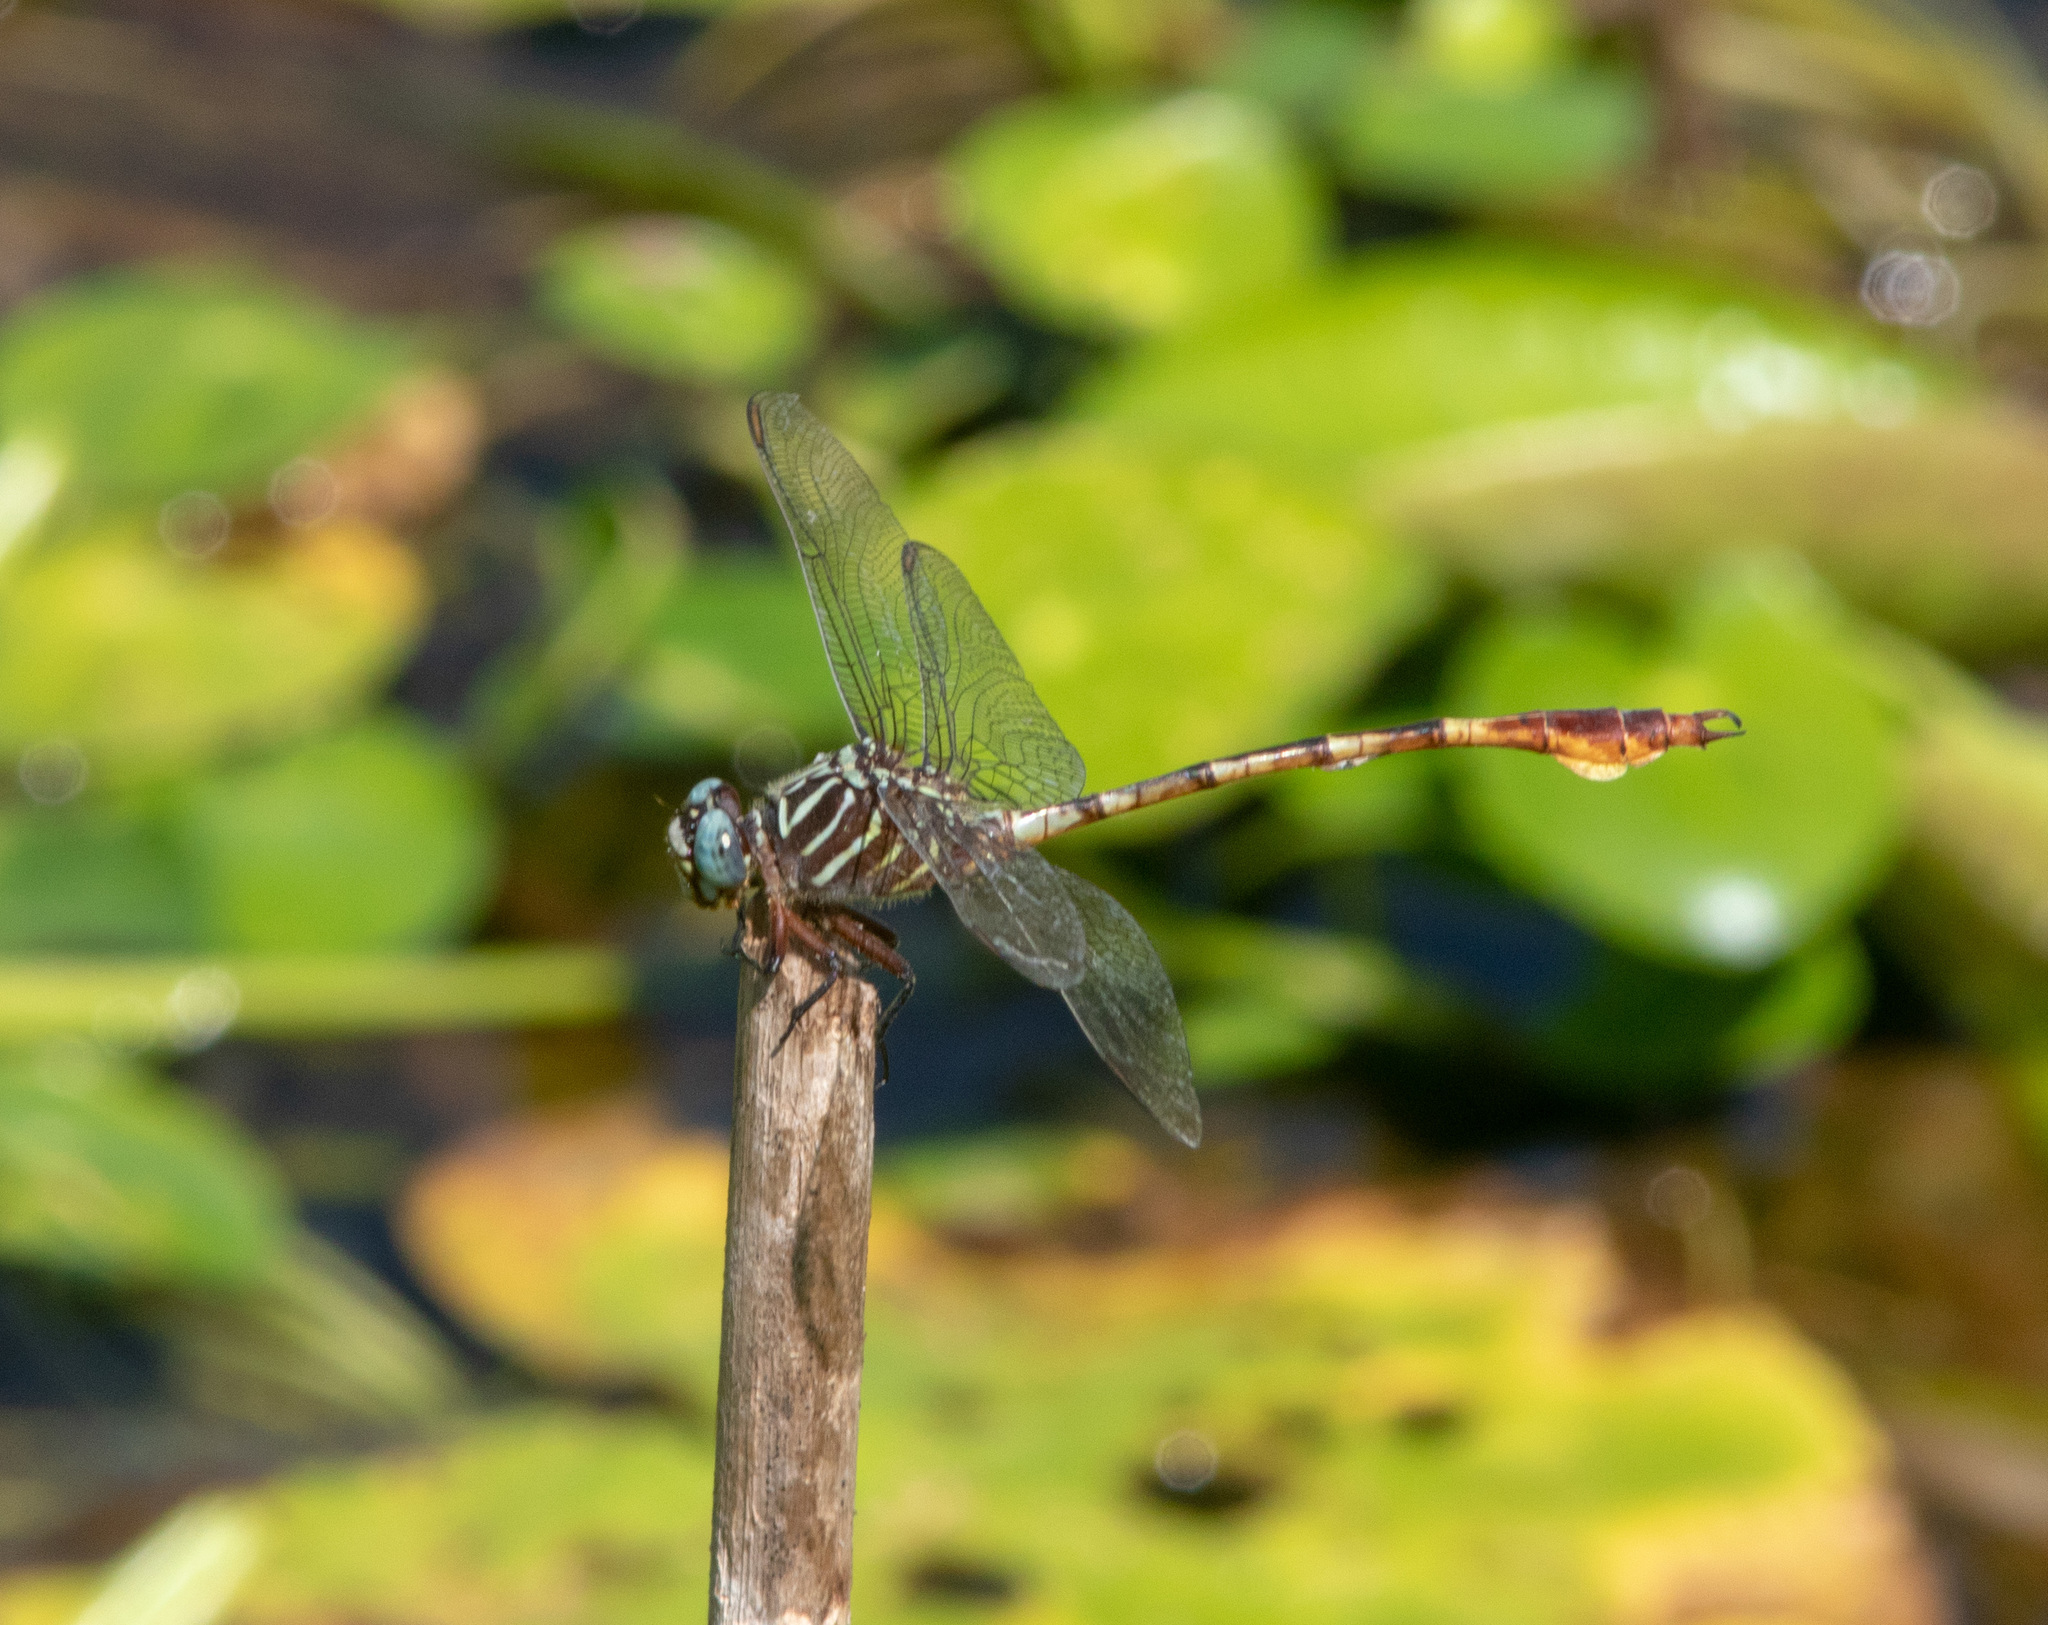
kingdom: Animalia
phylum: Arthropoda
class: Insecta
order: Odonata
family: Gomphidae
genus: Aphylla
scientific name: Aphylla protracta
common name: Narrow-striped forceptail
